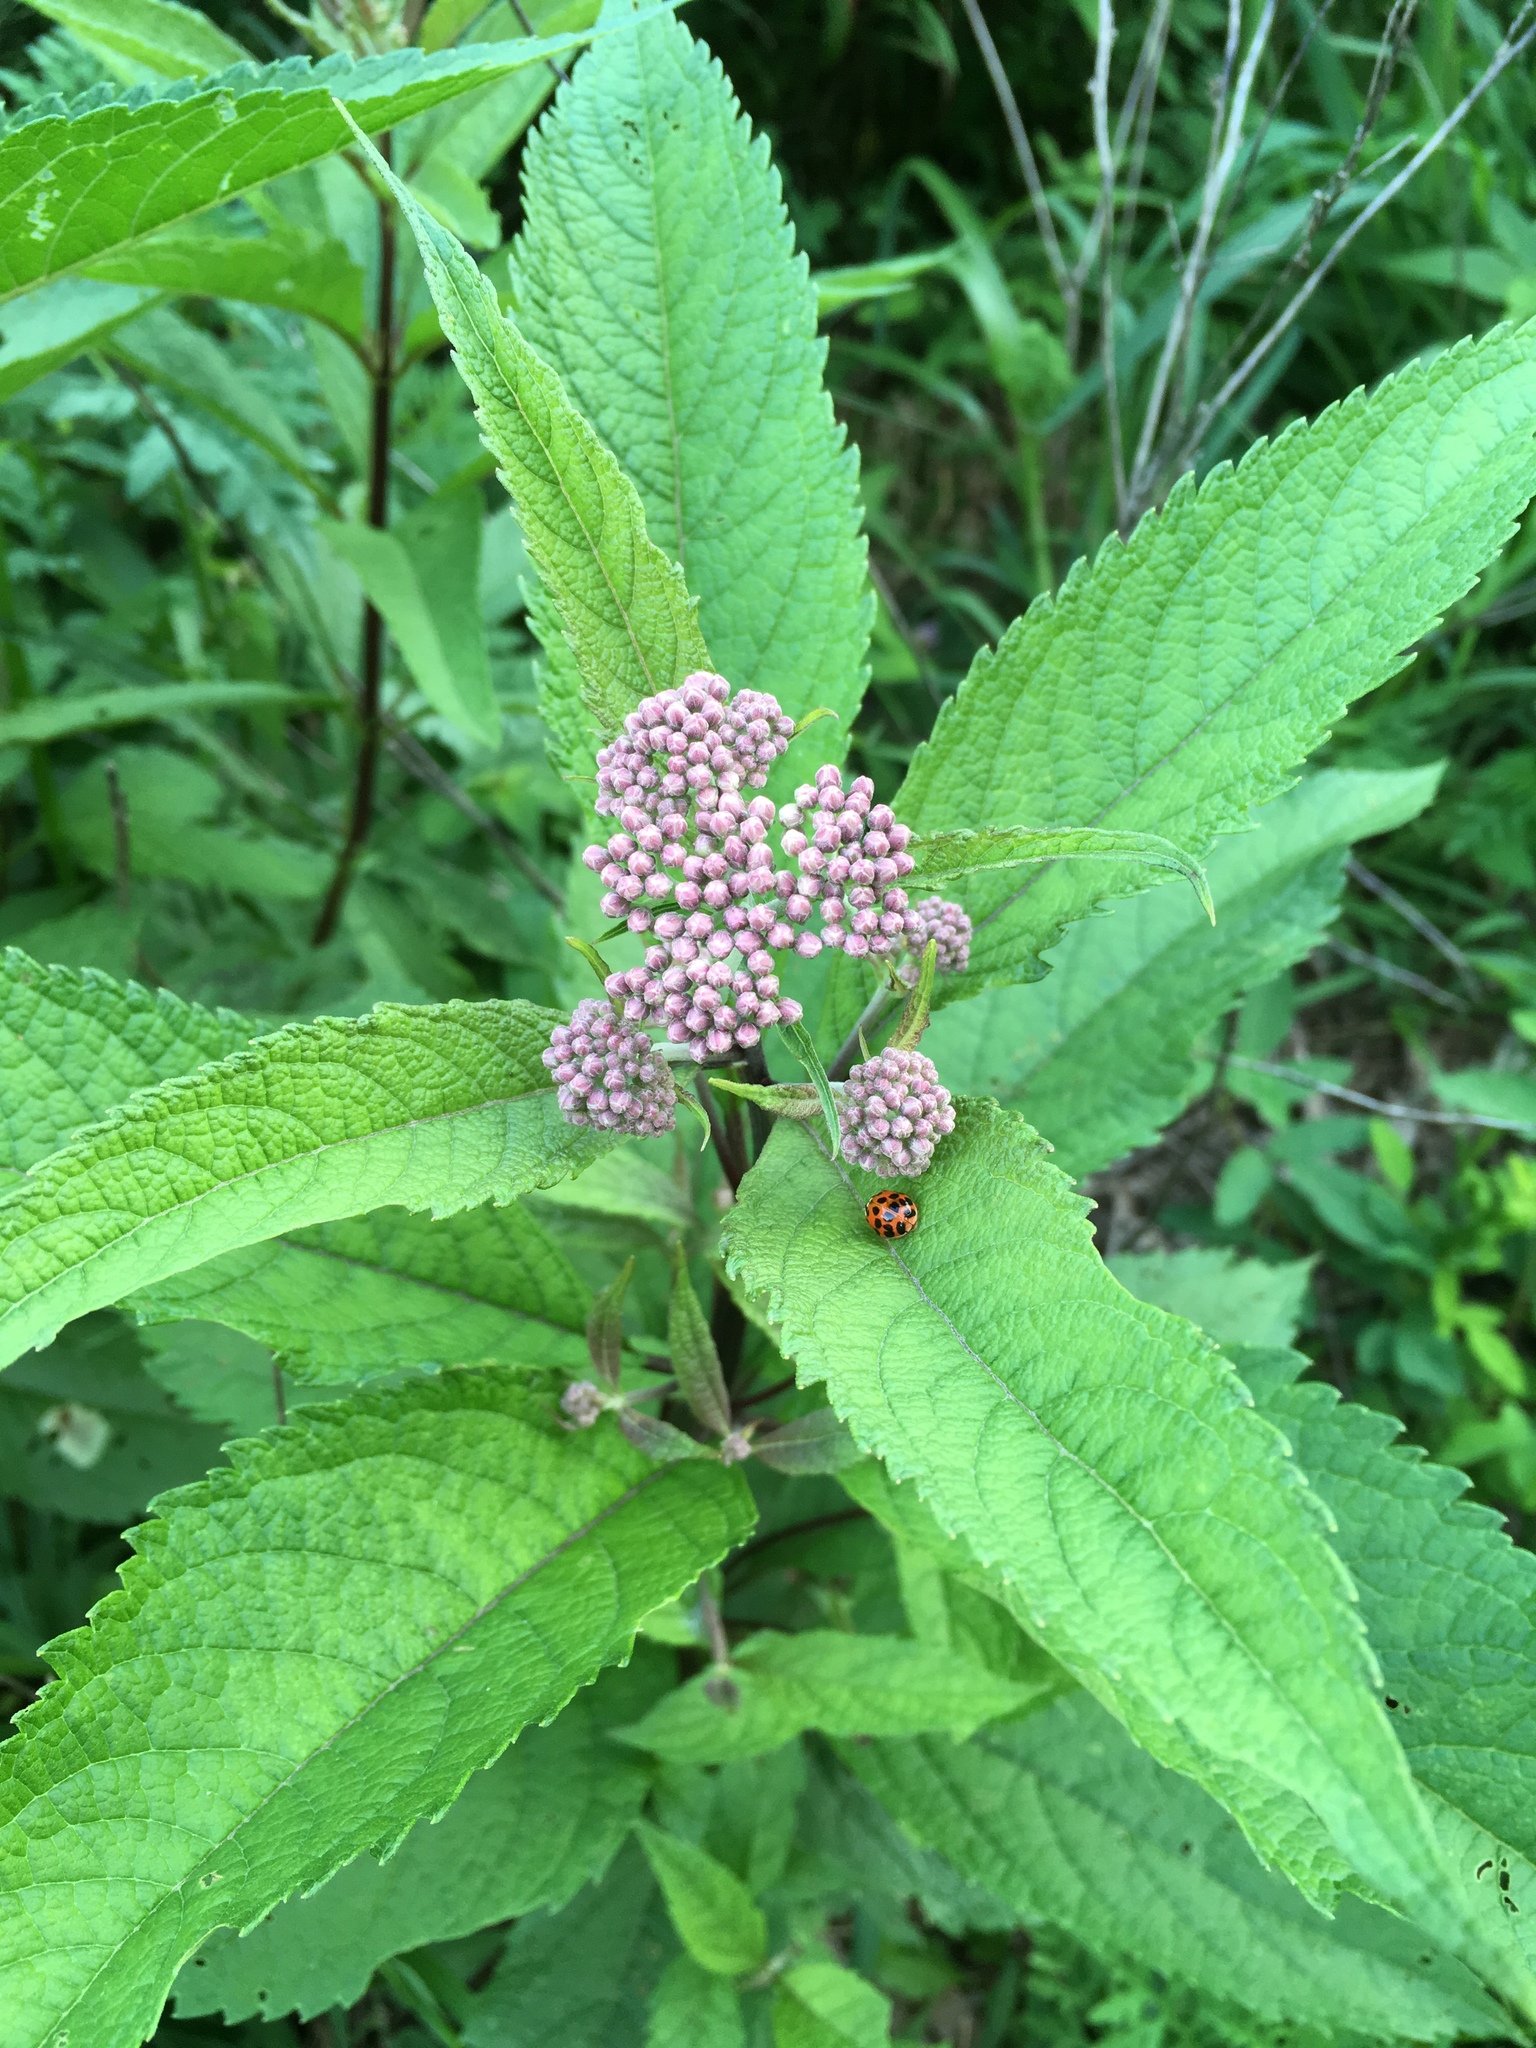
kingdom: Plantae
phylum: Tracheophyta
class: Magnoliopsida
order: Asterales
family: Asteraceae
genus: Eutrochium
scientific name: Eutrochium purpureum
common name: Gravelroot
